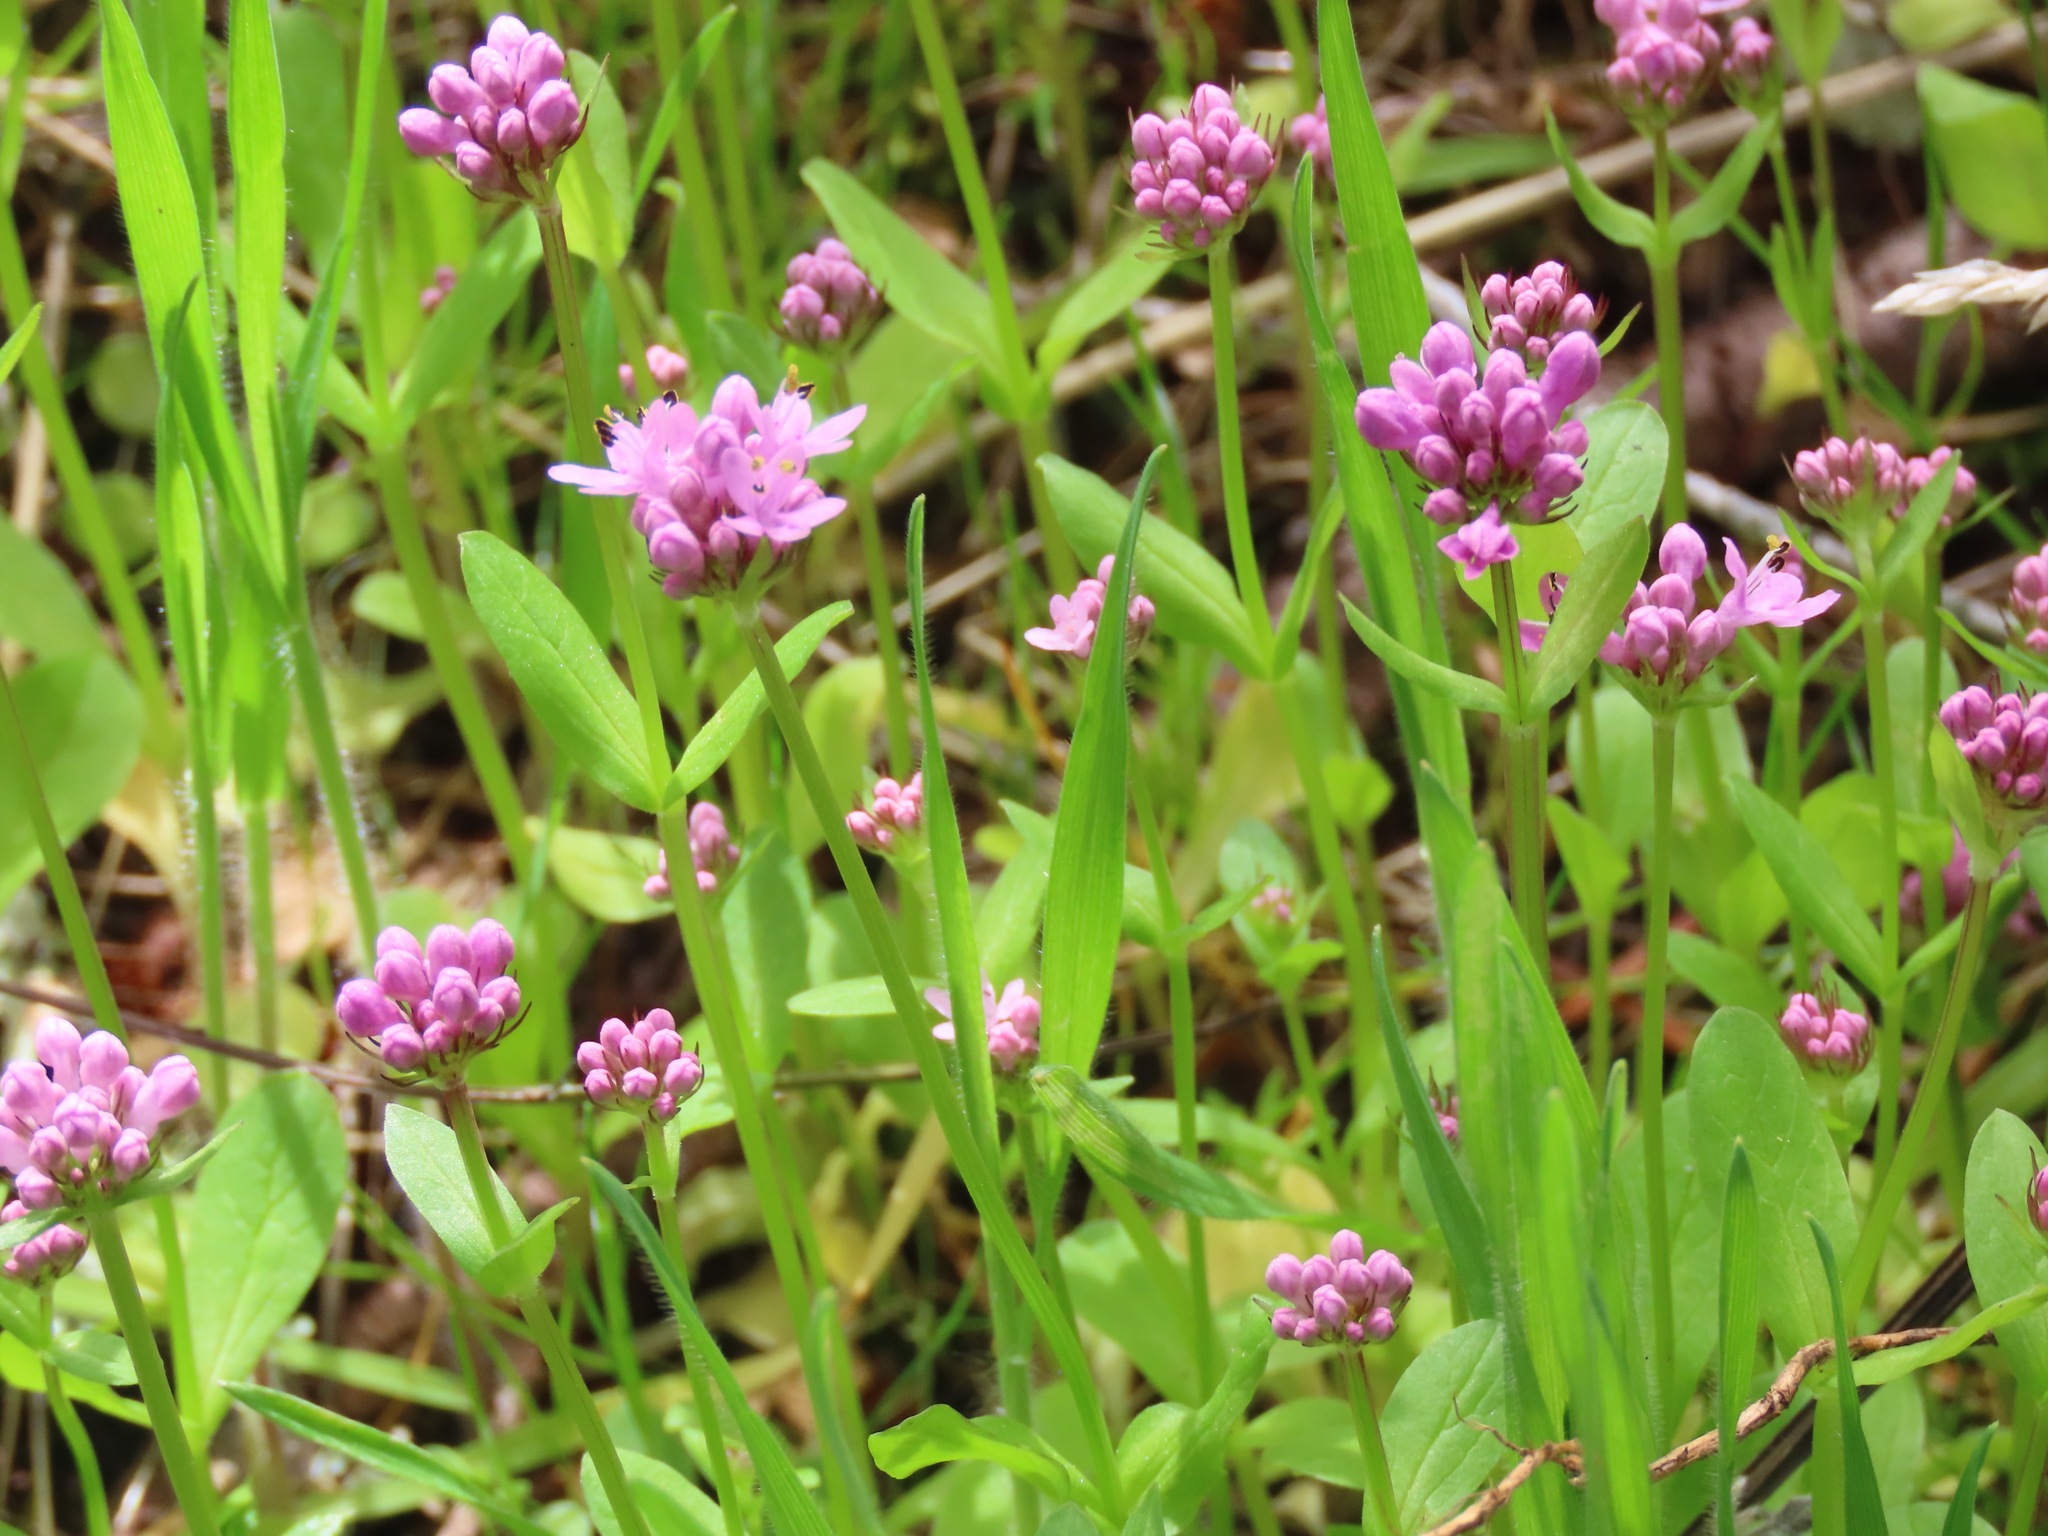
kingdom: Plantae
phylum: Tracheophyta
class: Magnoliopsida
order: Dipsacales
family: Caprifoliaceae
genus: Plectritis
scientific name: Plectritis congesta
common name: Pink plectritis
